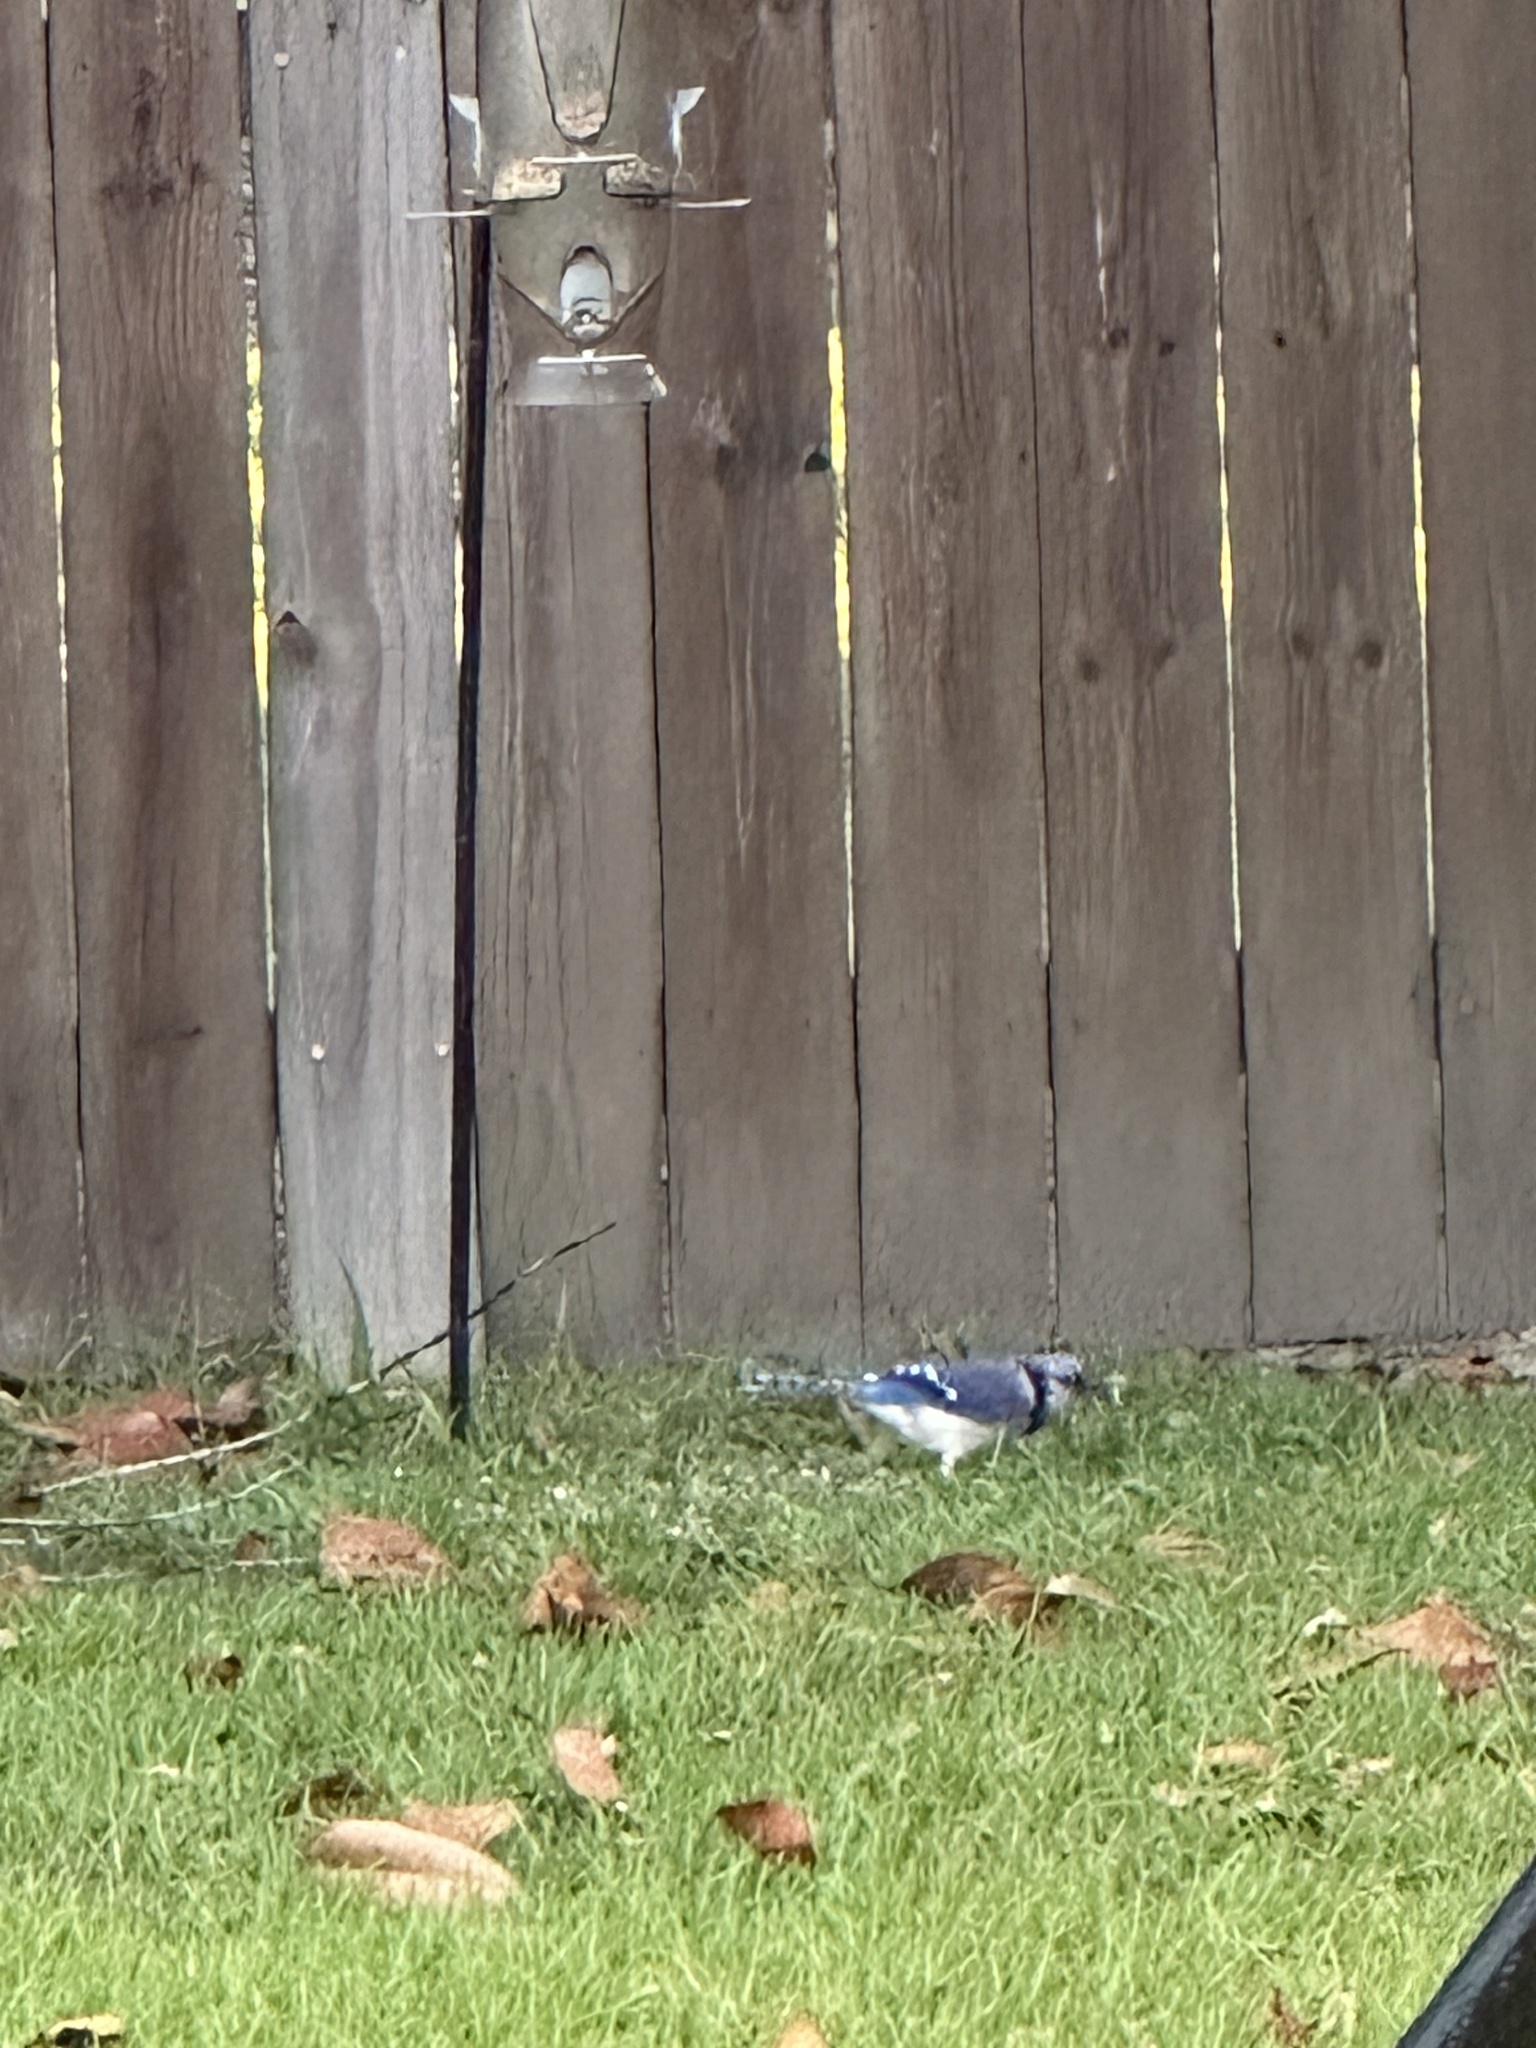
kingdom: Animalia
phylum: Chordata
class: Aves
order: Passeriformes
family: Corvidae
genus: Cyanocitta
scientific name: Cyanocitta cristata
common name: Blue jay
